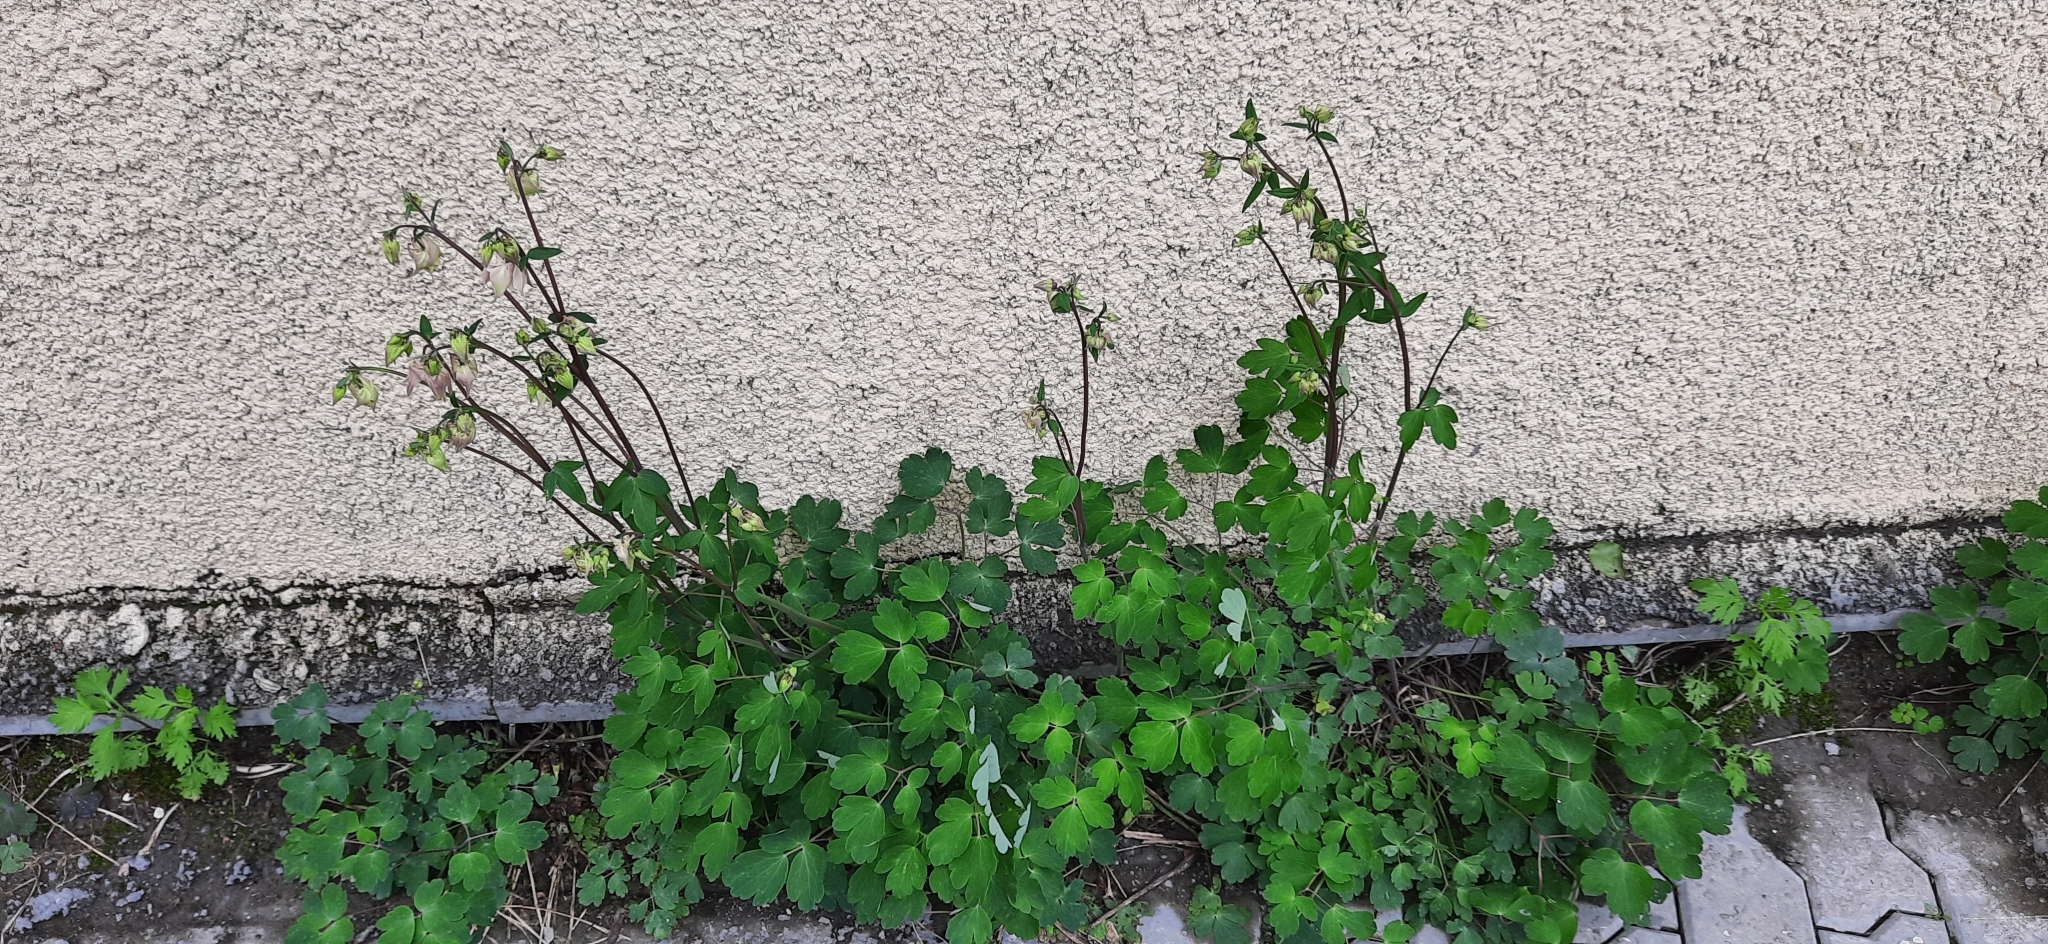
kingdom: Plantae
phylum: Tracheophyta
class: Magnoliopsida
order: Ranunculales
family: Ranunculaceae
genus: Aquilegia
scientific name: Aquilegia vulgaris
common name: Columbine
